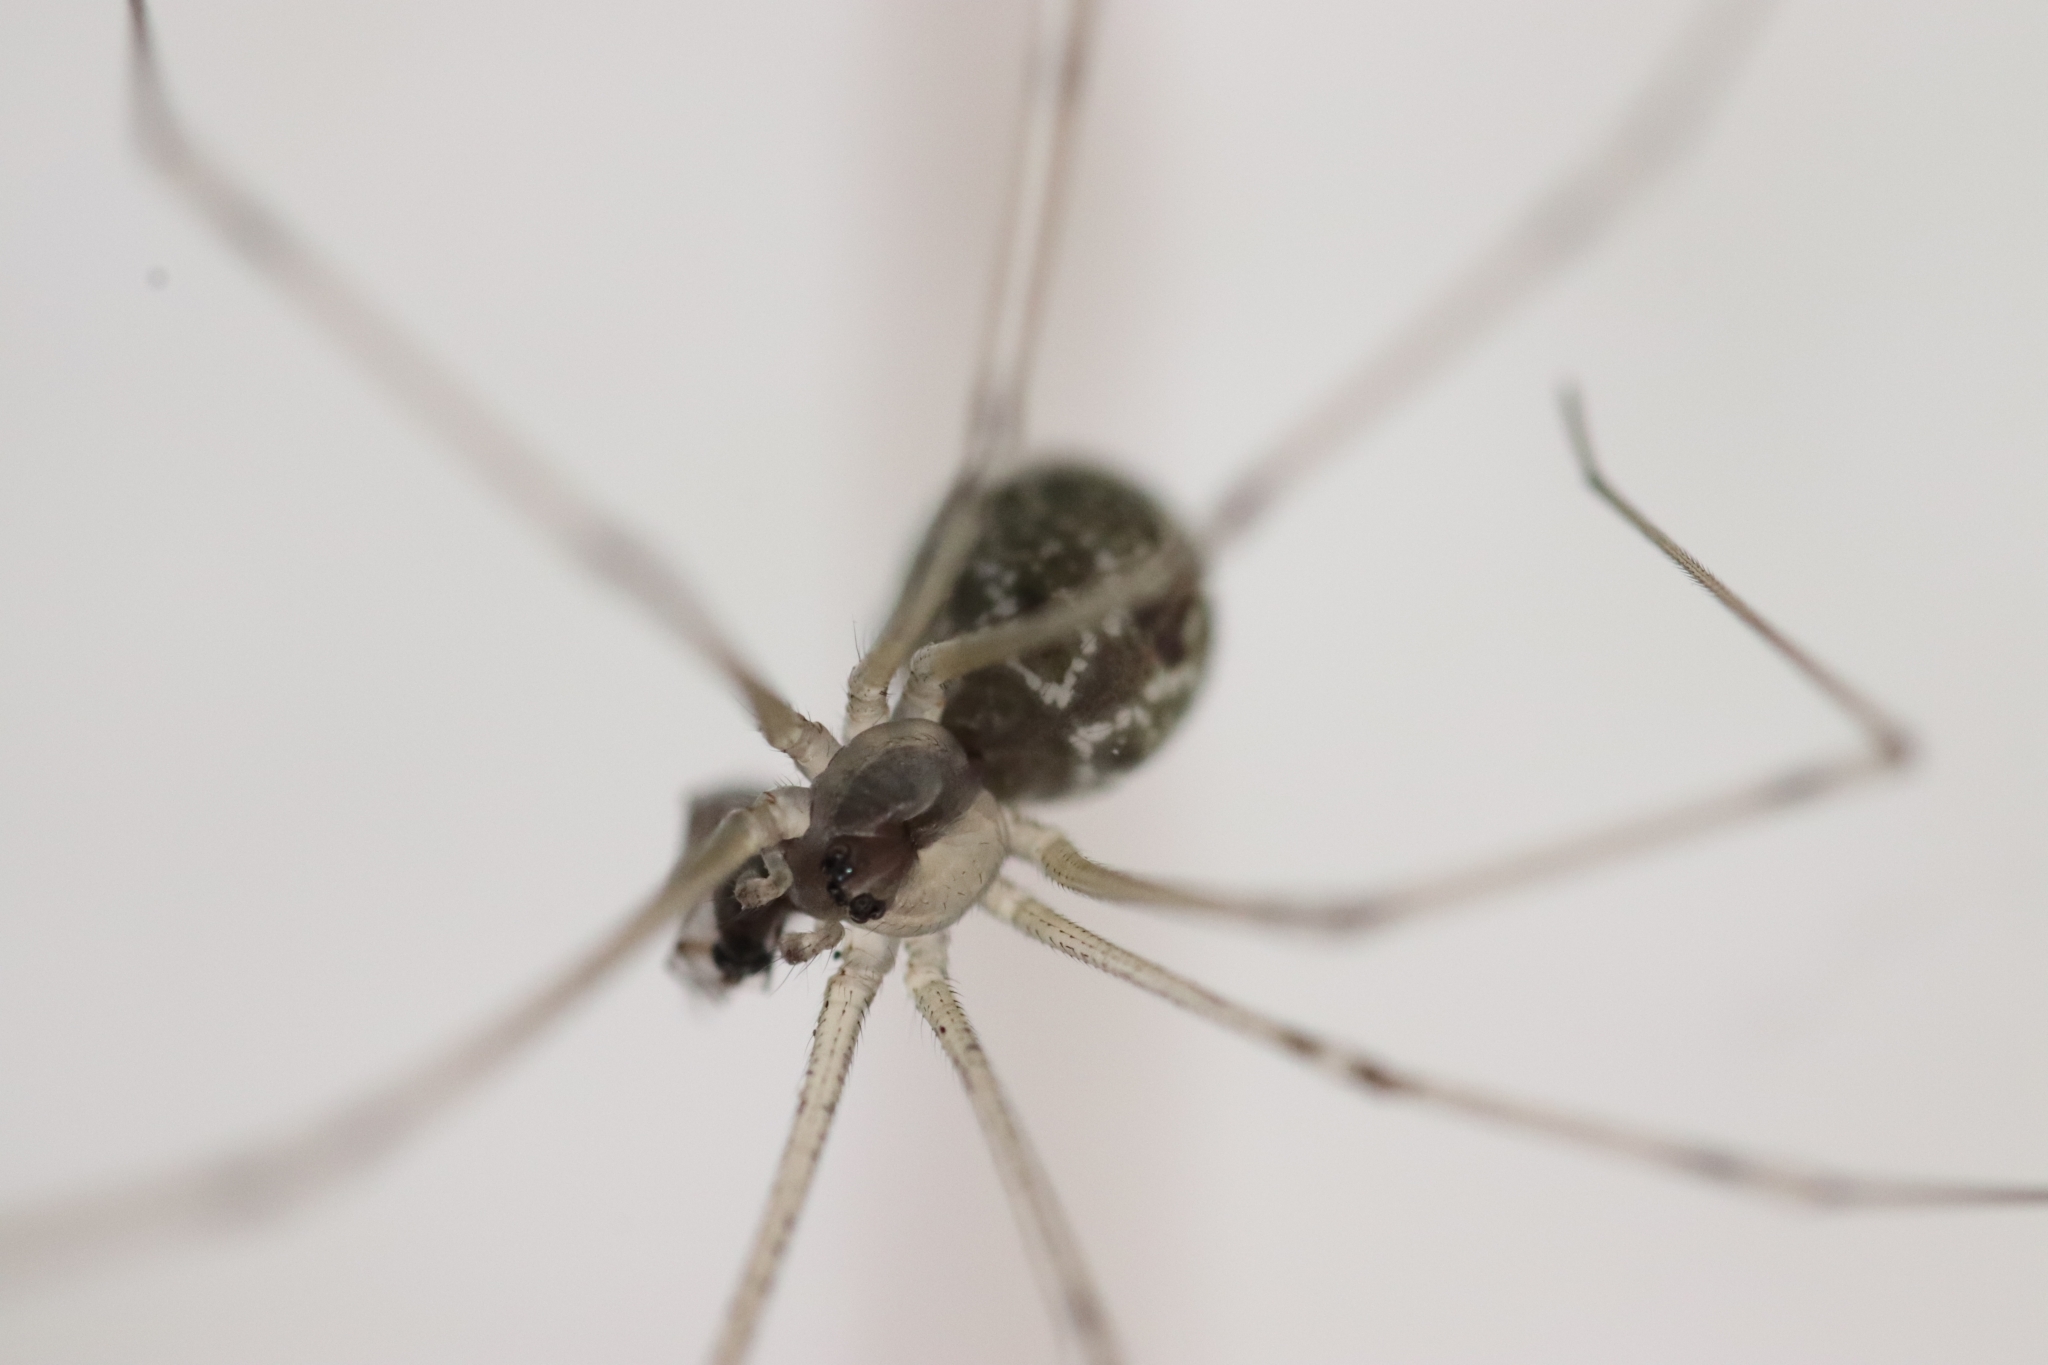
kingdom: Animalia
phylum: Arthropoda
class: Arachnida
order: Araneae
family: Pholcidae
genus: Holocnemus
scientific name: Holocnemus pluchei
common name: Marbled cellar spider
